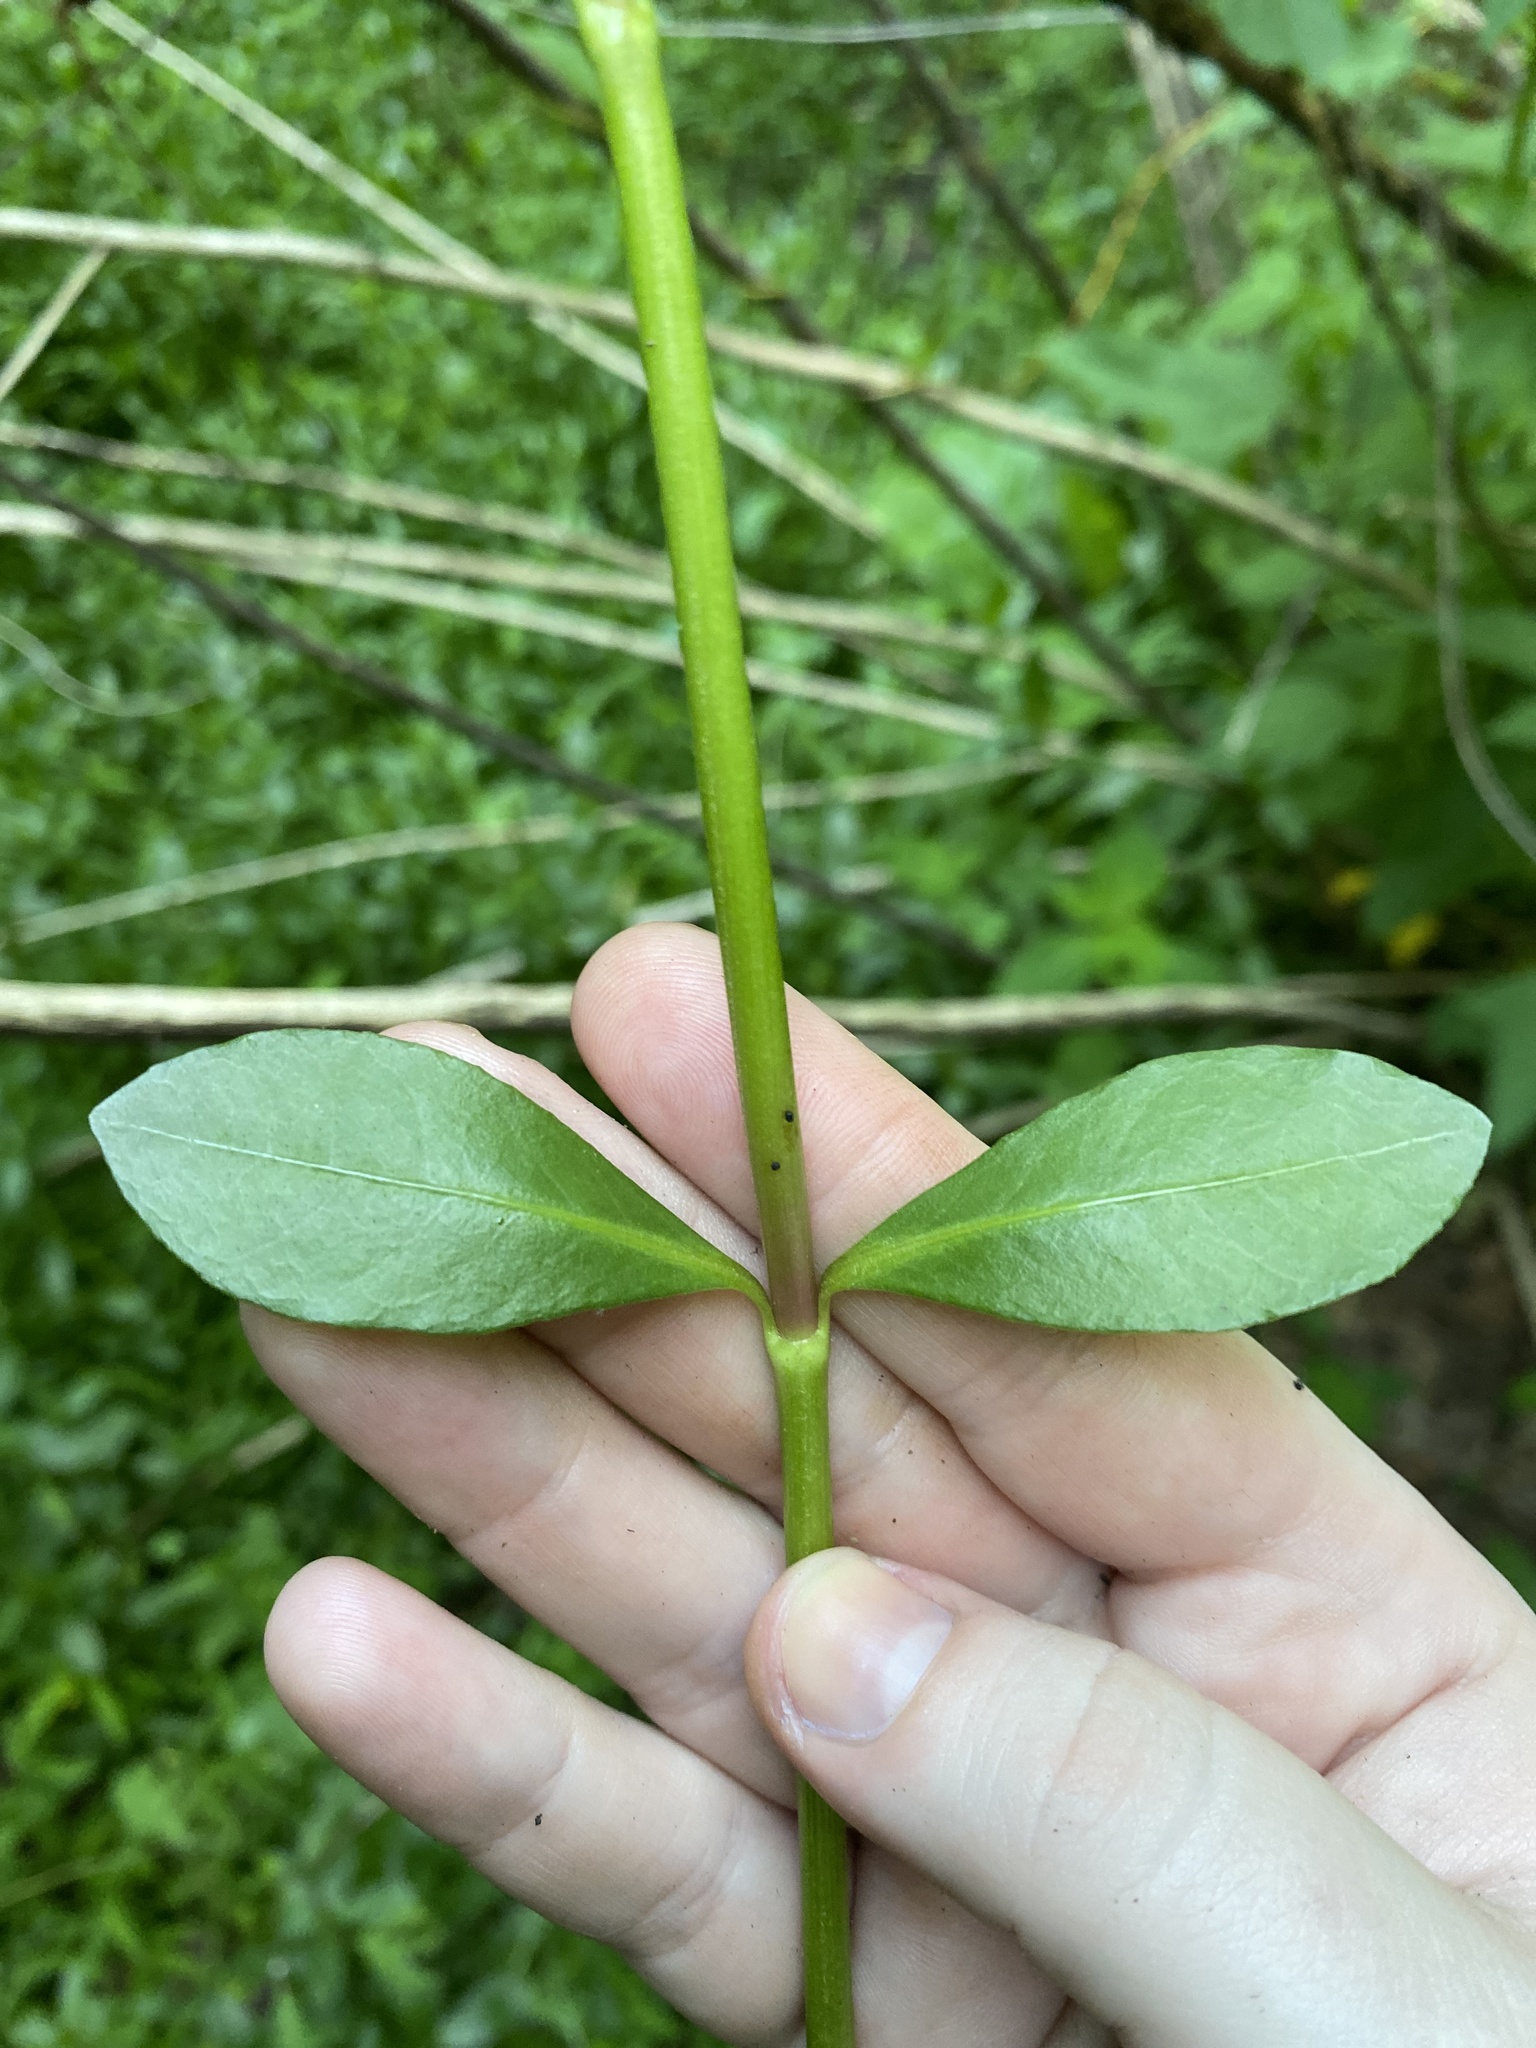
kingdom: Plantae
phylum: Tracheophyta
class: Magnoliopsida
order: Caryophyllales
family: Amaranthaceae
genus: Alternanthera
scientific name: Alternanthera philoxeroides
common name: Alligatorweed
